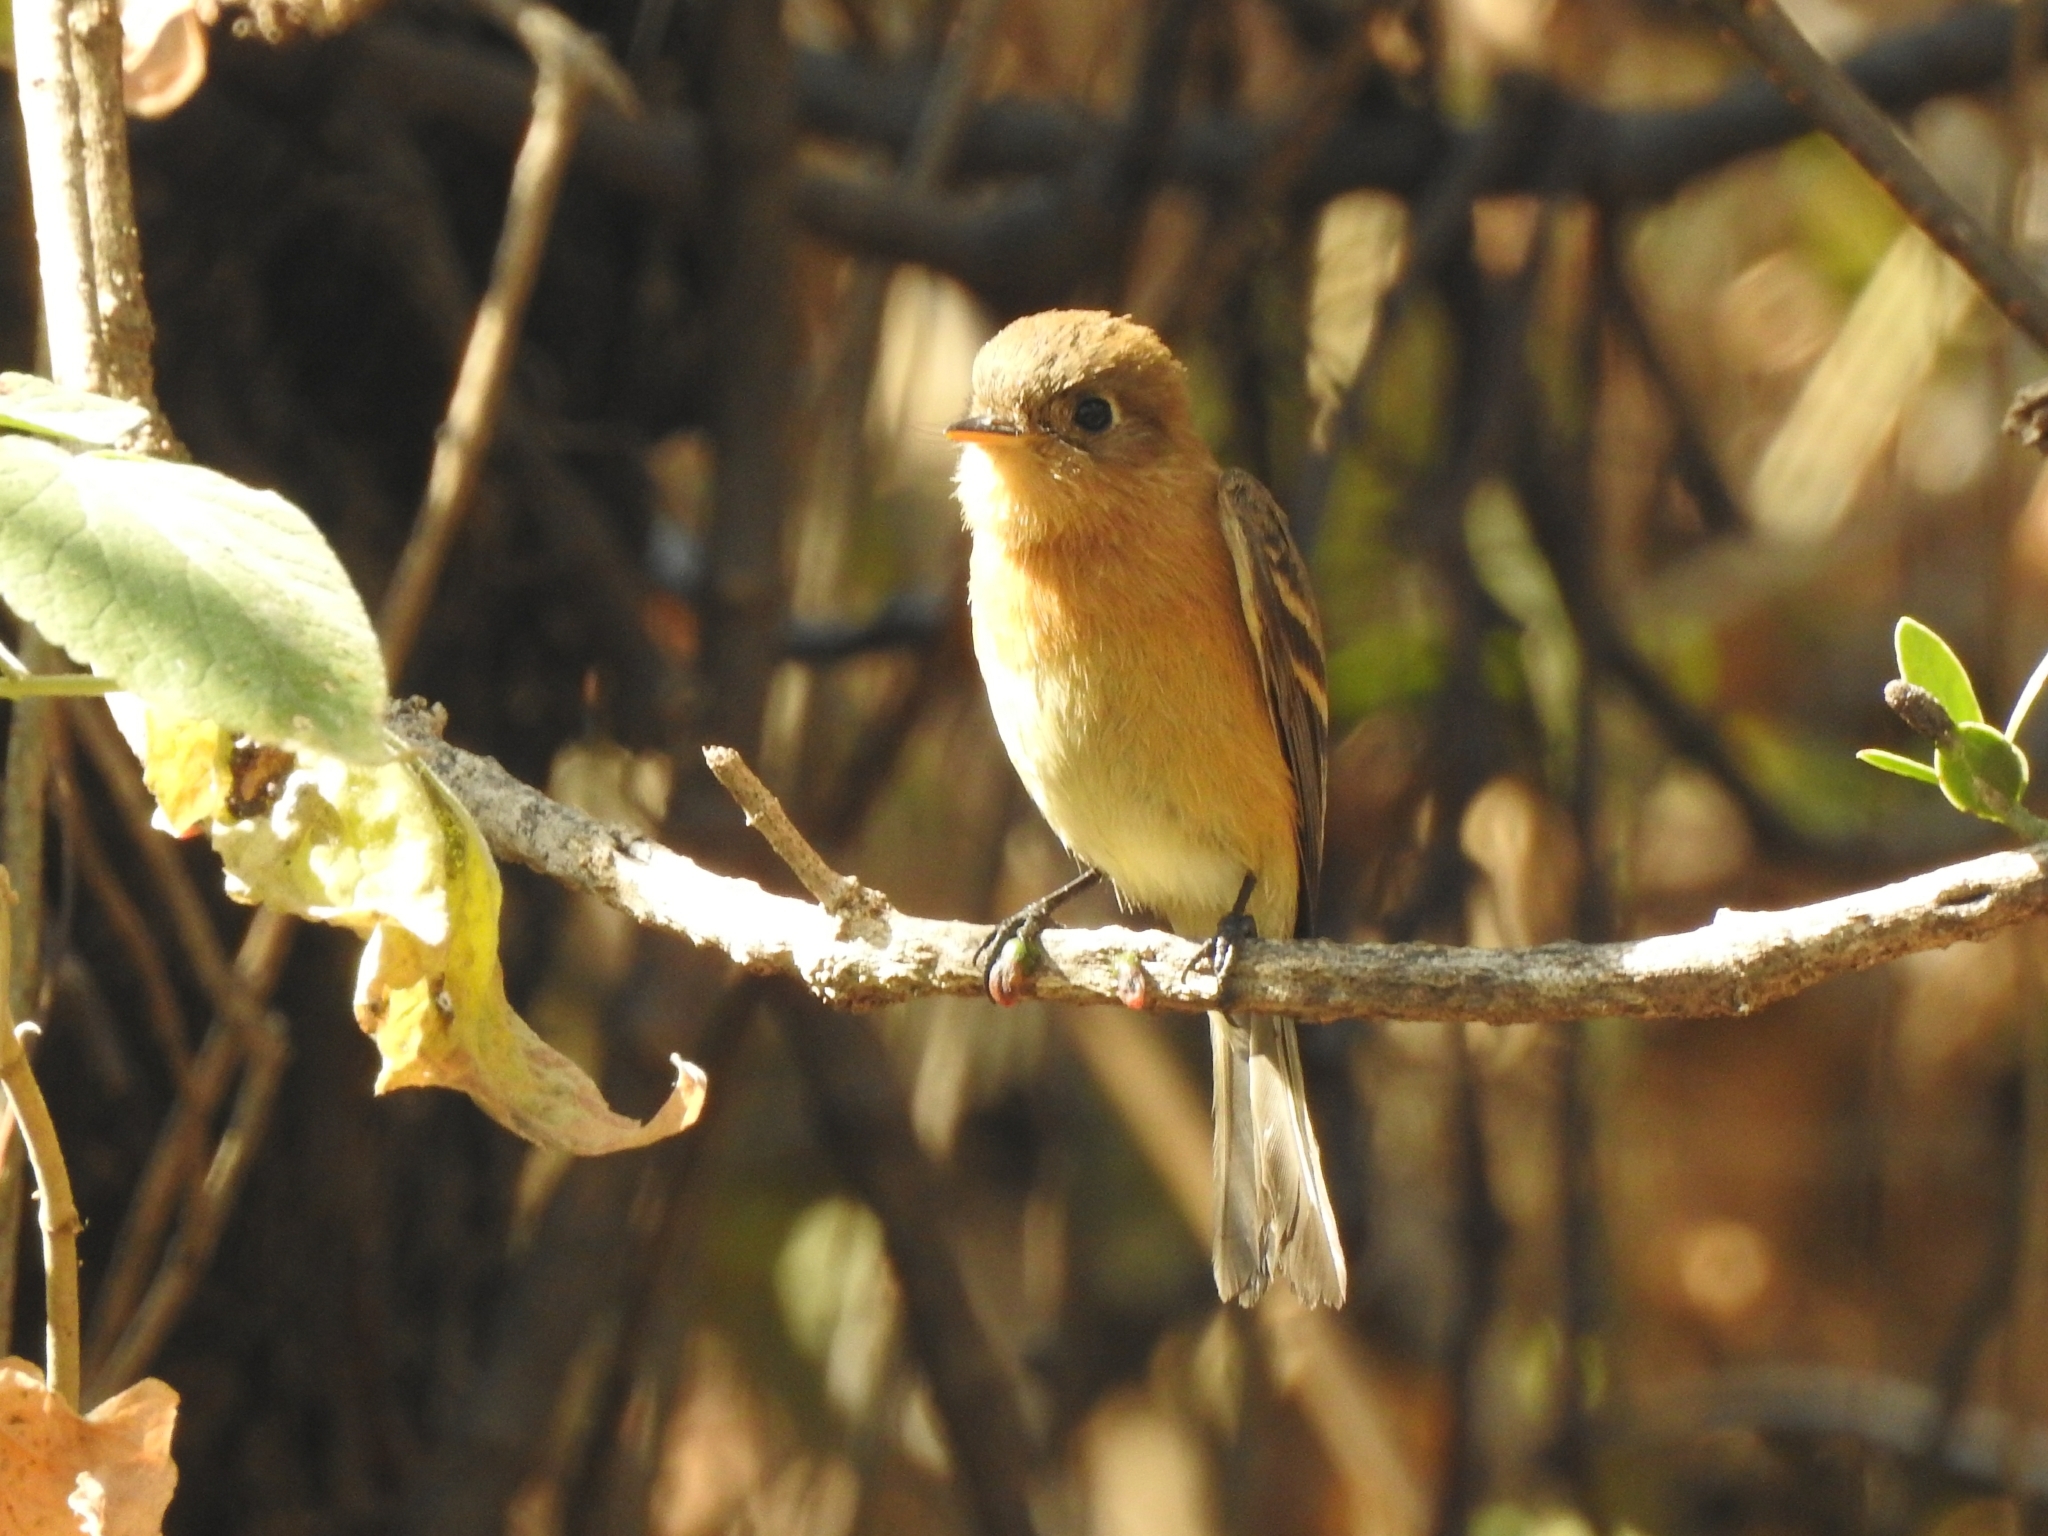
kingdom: Animalia
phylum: Chordata
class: Aves
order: Passeriformes
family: Tyrannidae
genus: Empidonax
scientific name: Empidonax fulvifrons
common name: Buff-breasted flycatcher
